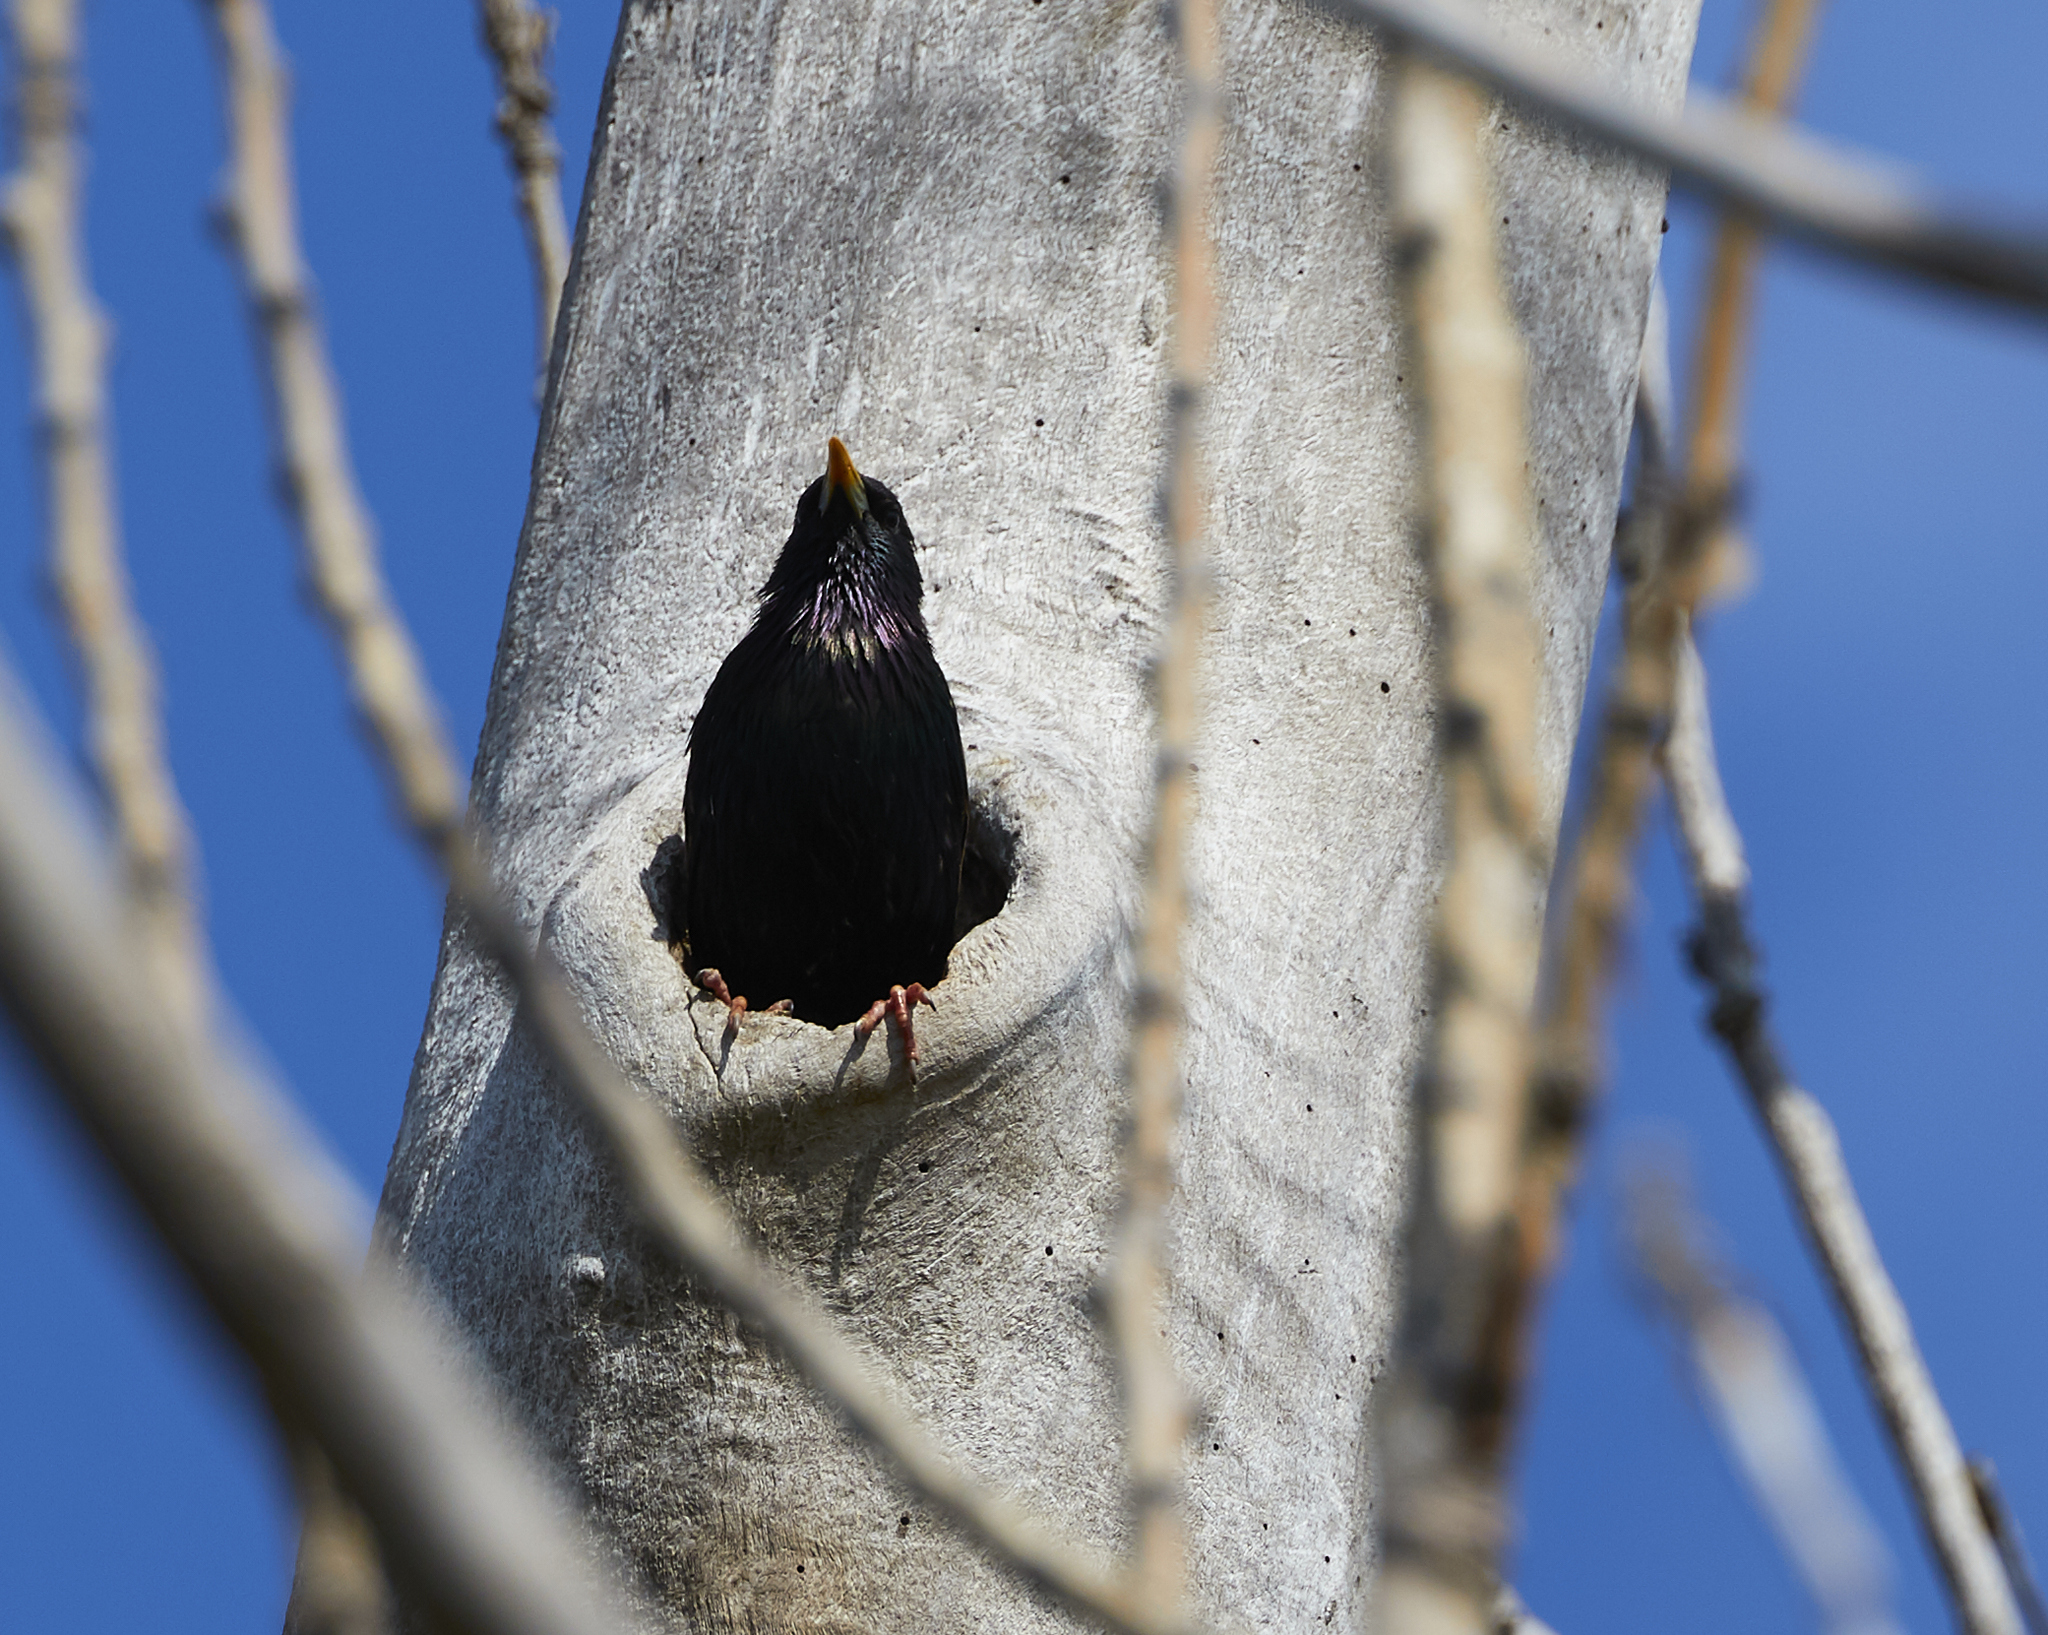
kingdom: Animalia
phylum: Chordata
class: Aves
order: Passeriformes
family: Sturnidae
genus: Sturnus
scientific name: Sturnus vulgaris
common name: Common starling
